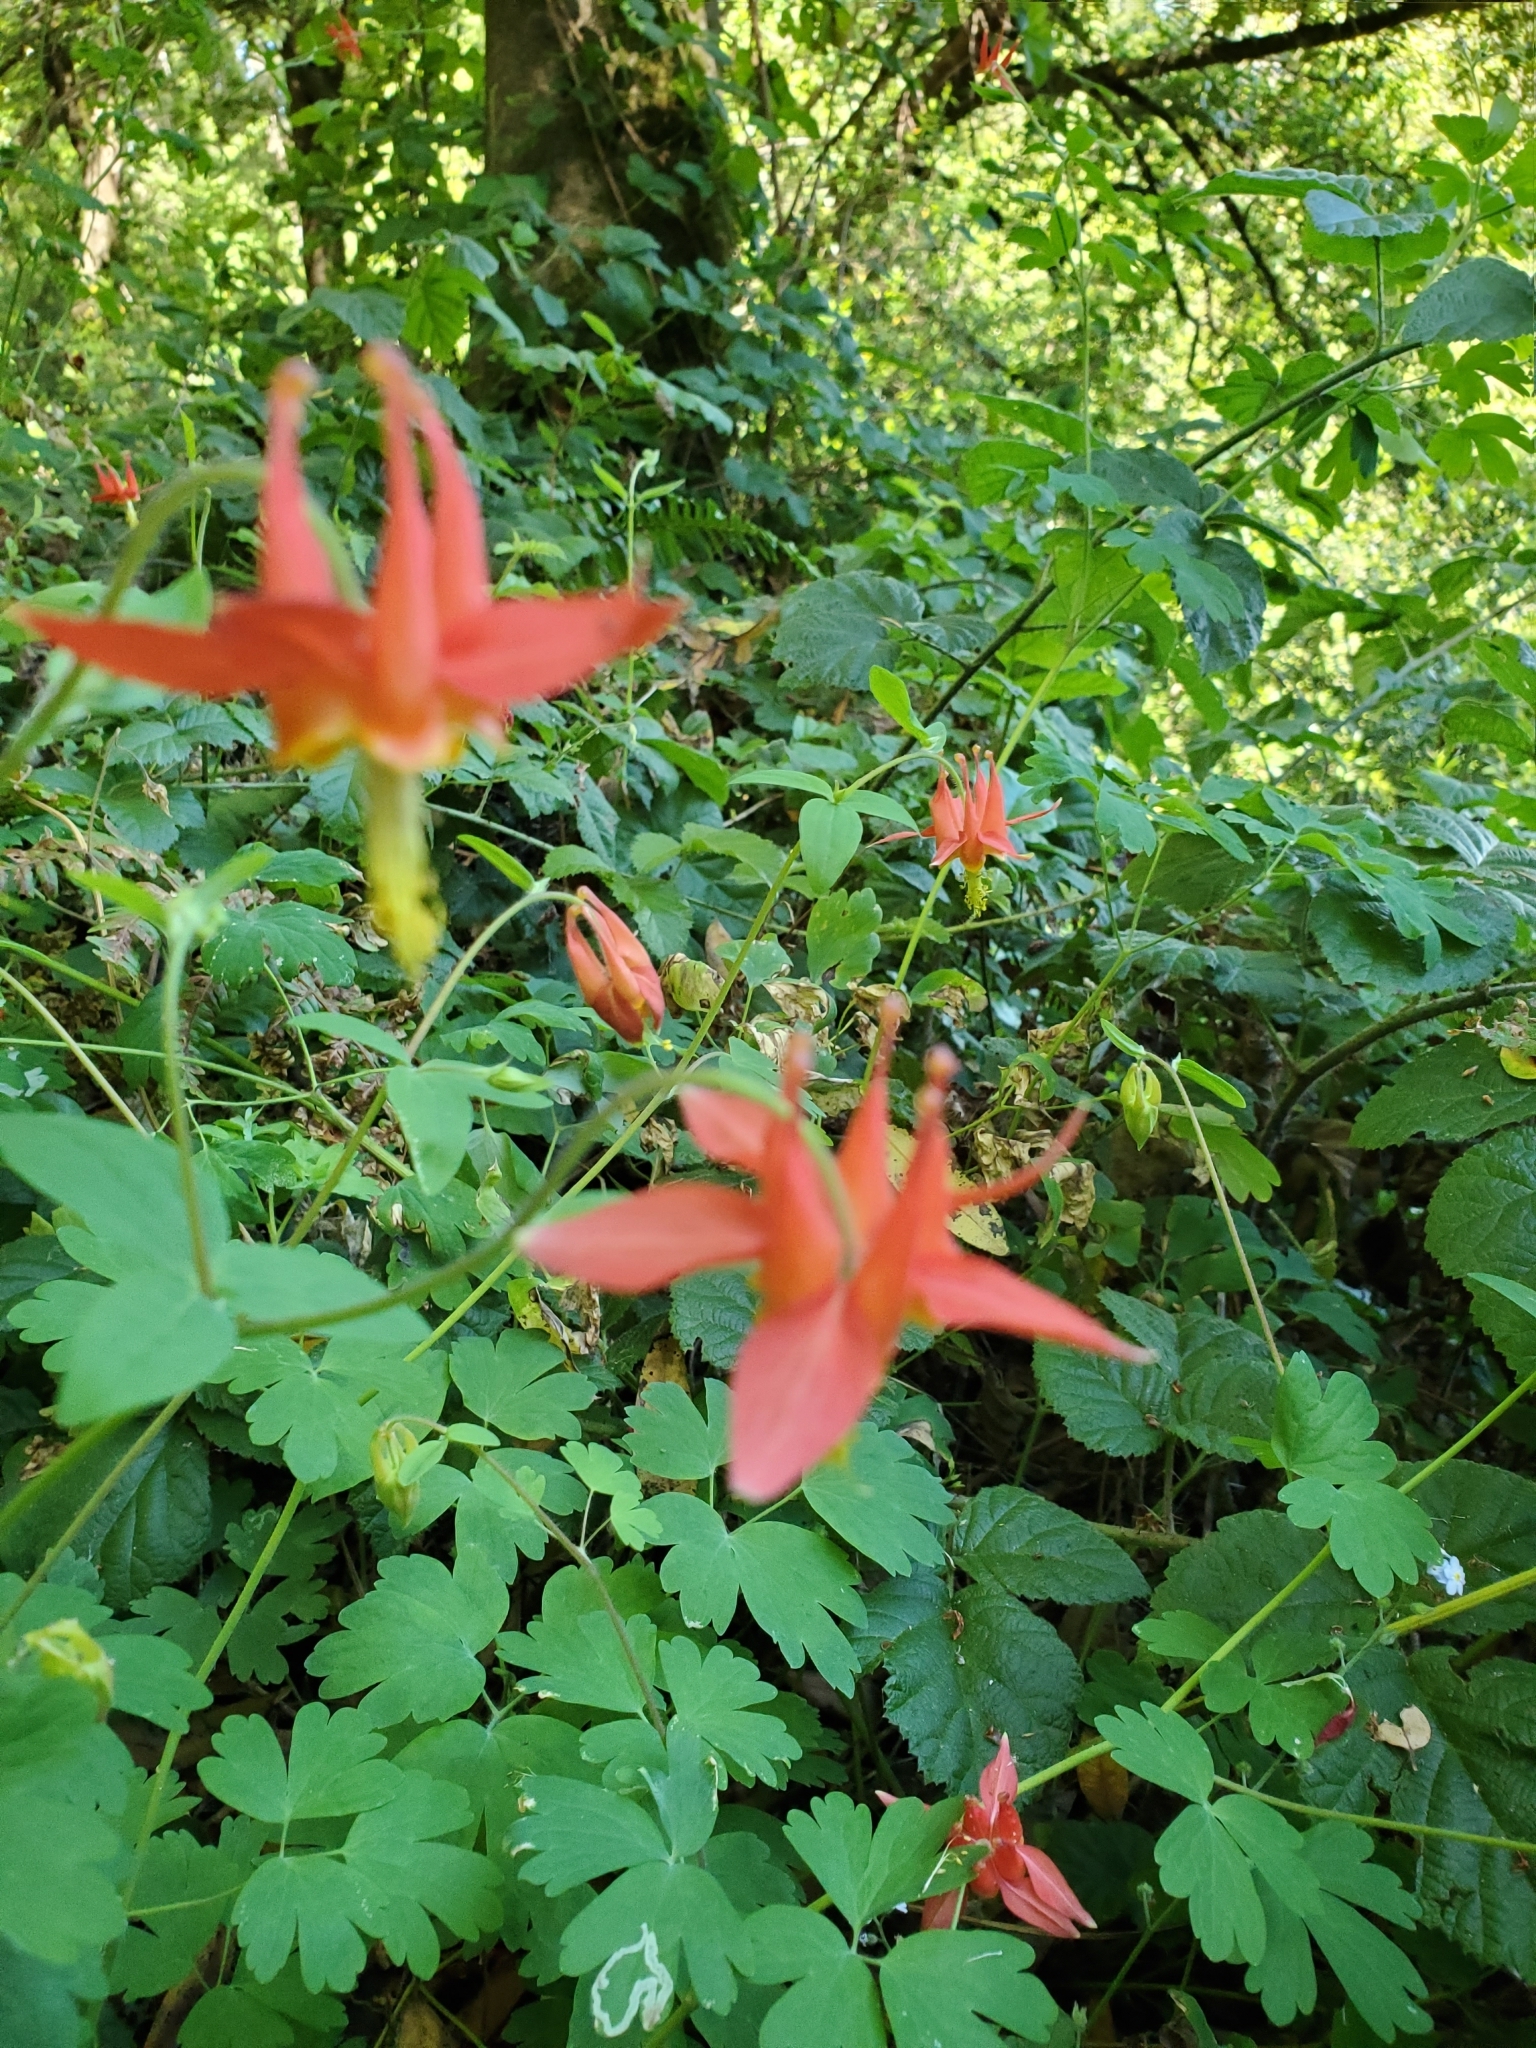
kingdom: Plantae
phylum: Tracheophyta
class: Magnoliopsida
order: Ranunculales
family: Ranunculaceae
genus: Aquilegia
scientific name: Aquilegia formosa
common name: Sitka columbine
